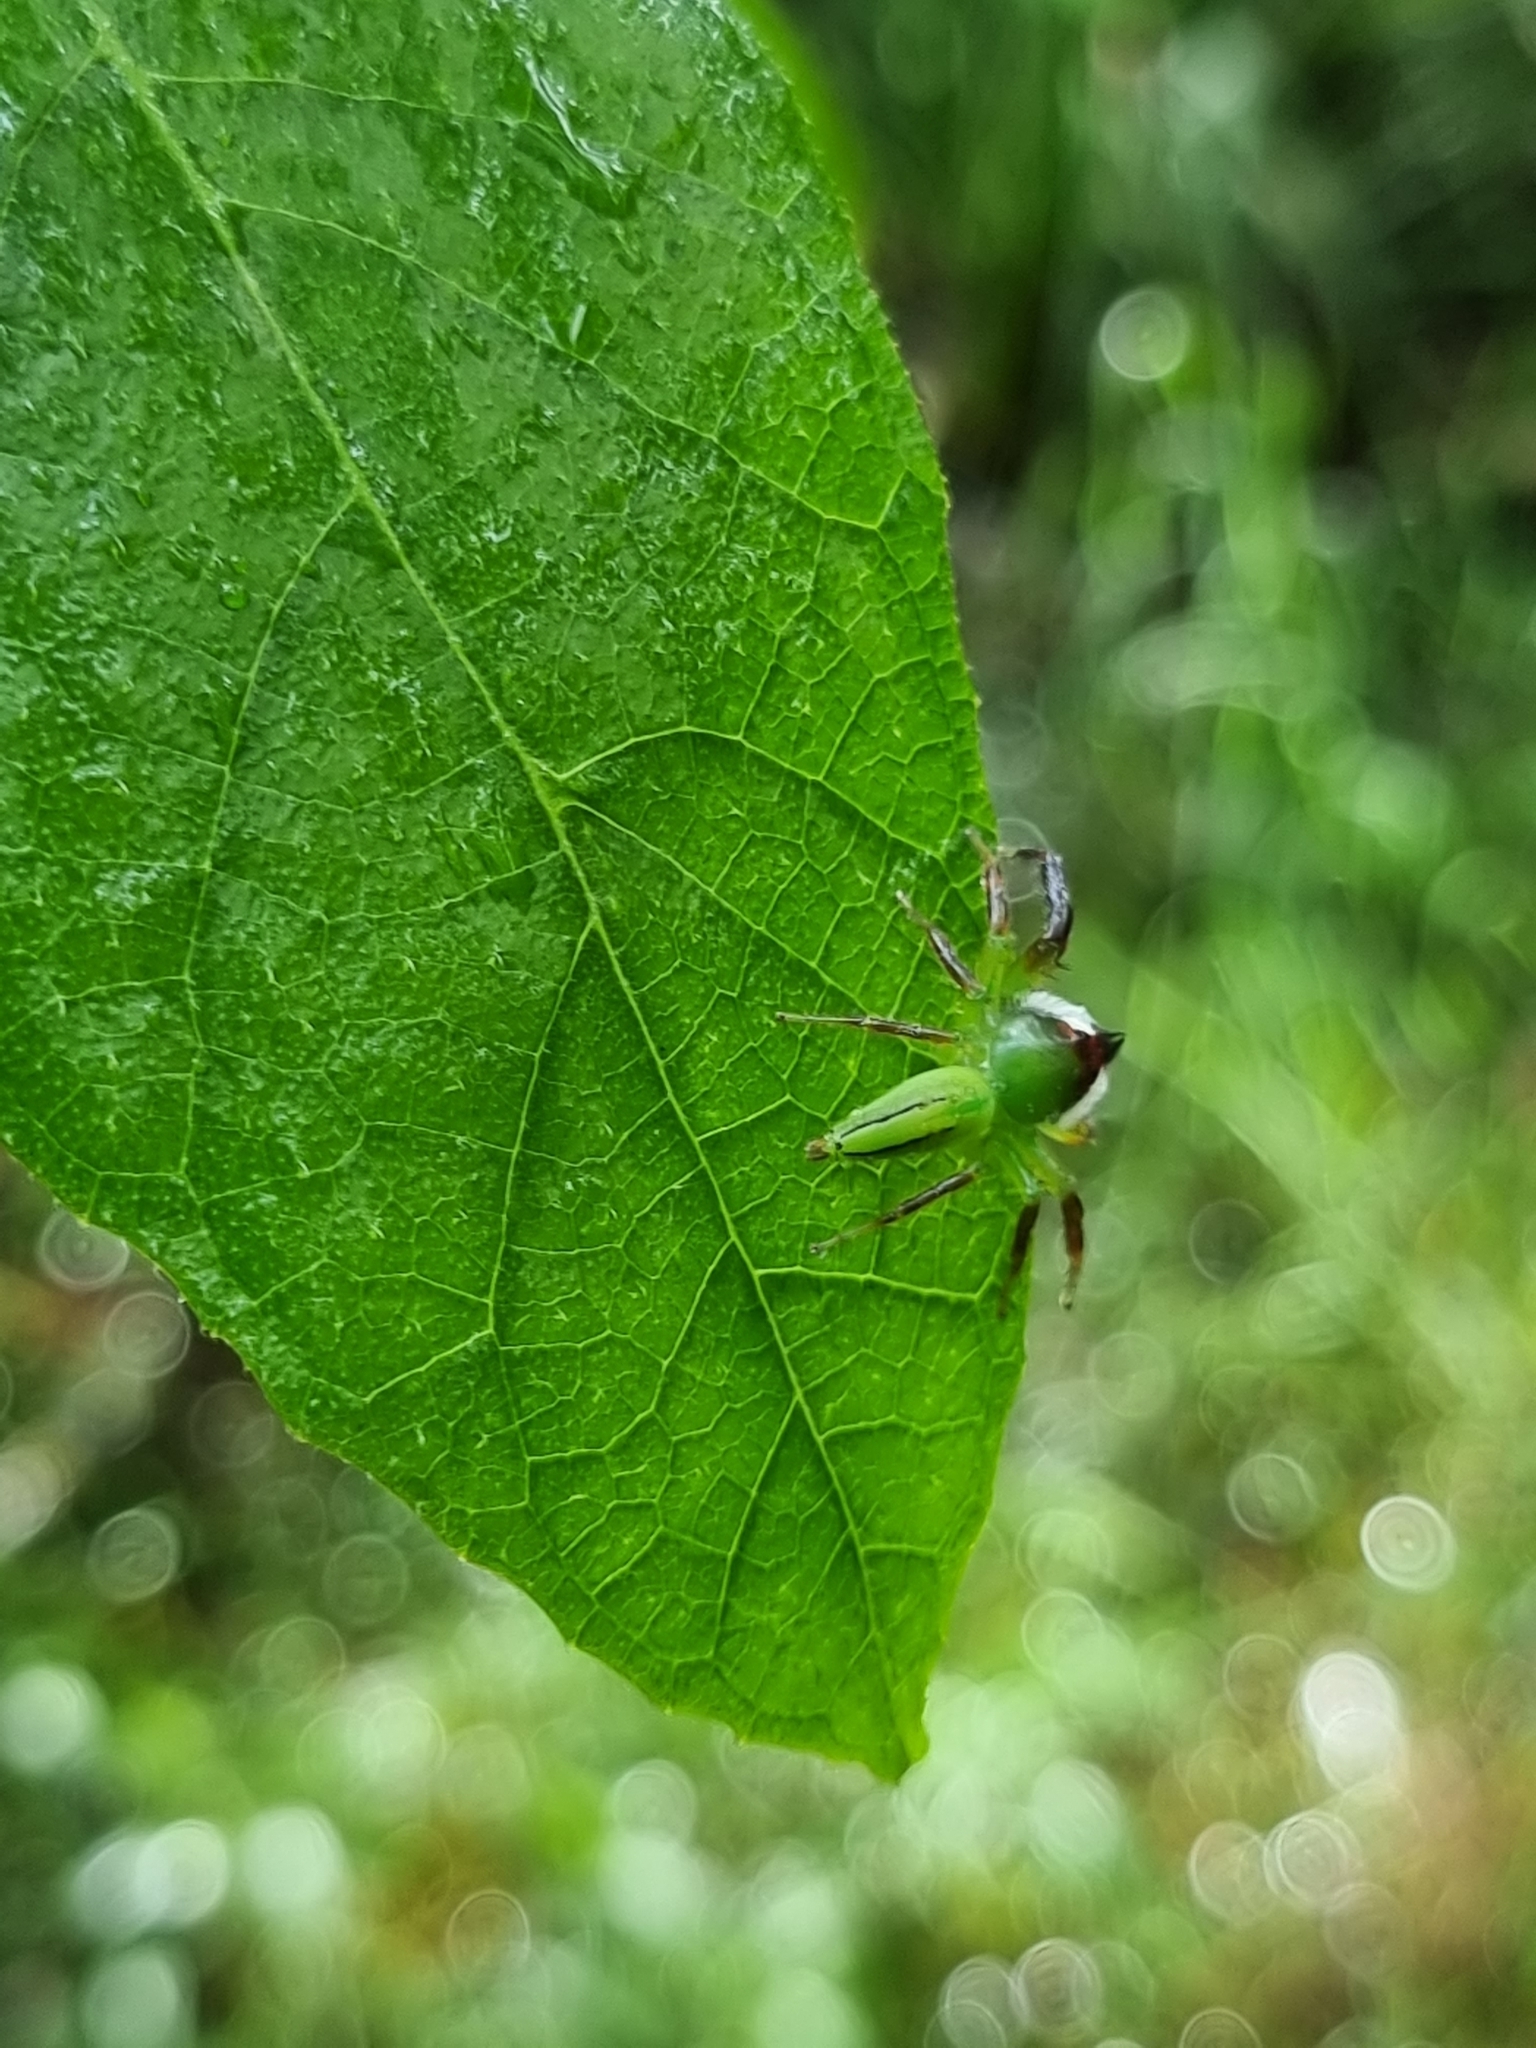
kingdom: Animalia
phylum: Arthropoda
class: Arachnida
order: Araneae
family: Salticidae
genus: Mopsus
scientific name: Mopsus mormon
